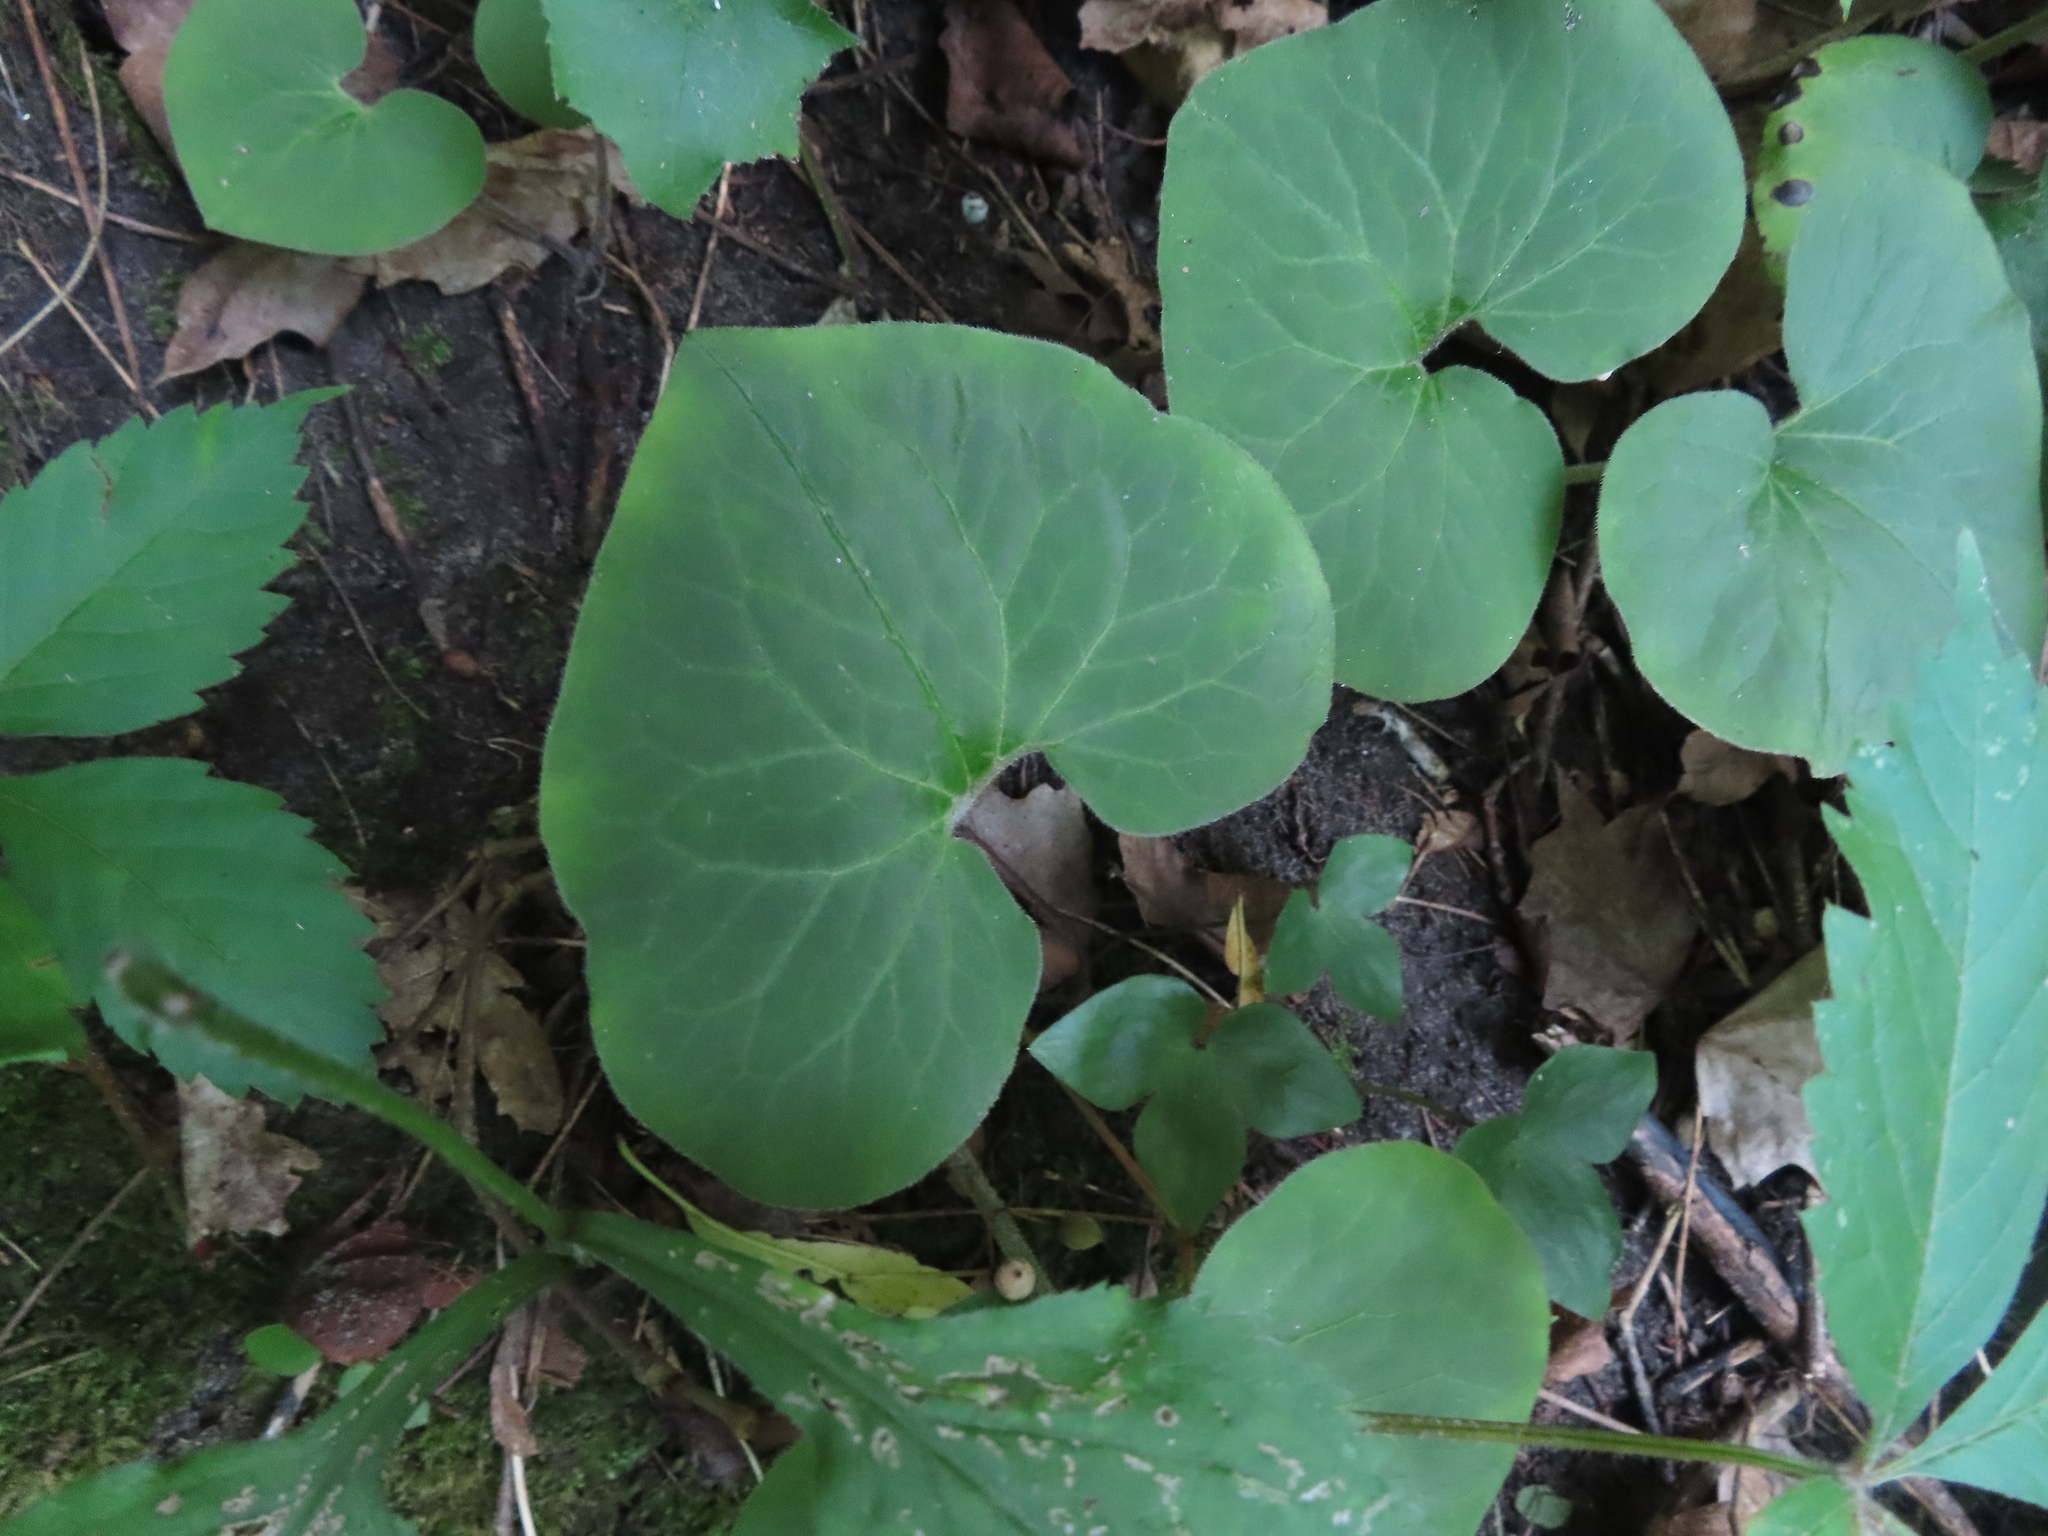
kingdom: Plantae
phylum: Tracheophyta
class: Magnoliopsida
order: Ranunculales
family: Ranunculaceae
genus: Hepatica
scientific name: Hepatica acutiloba
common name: Sharp-lobed hepatica
